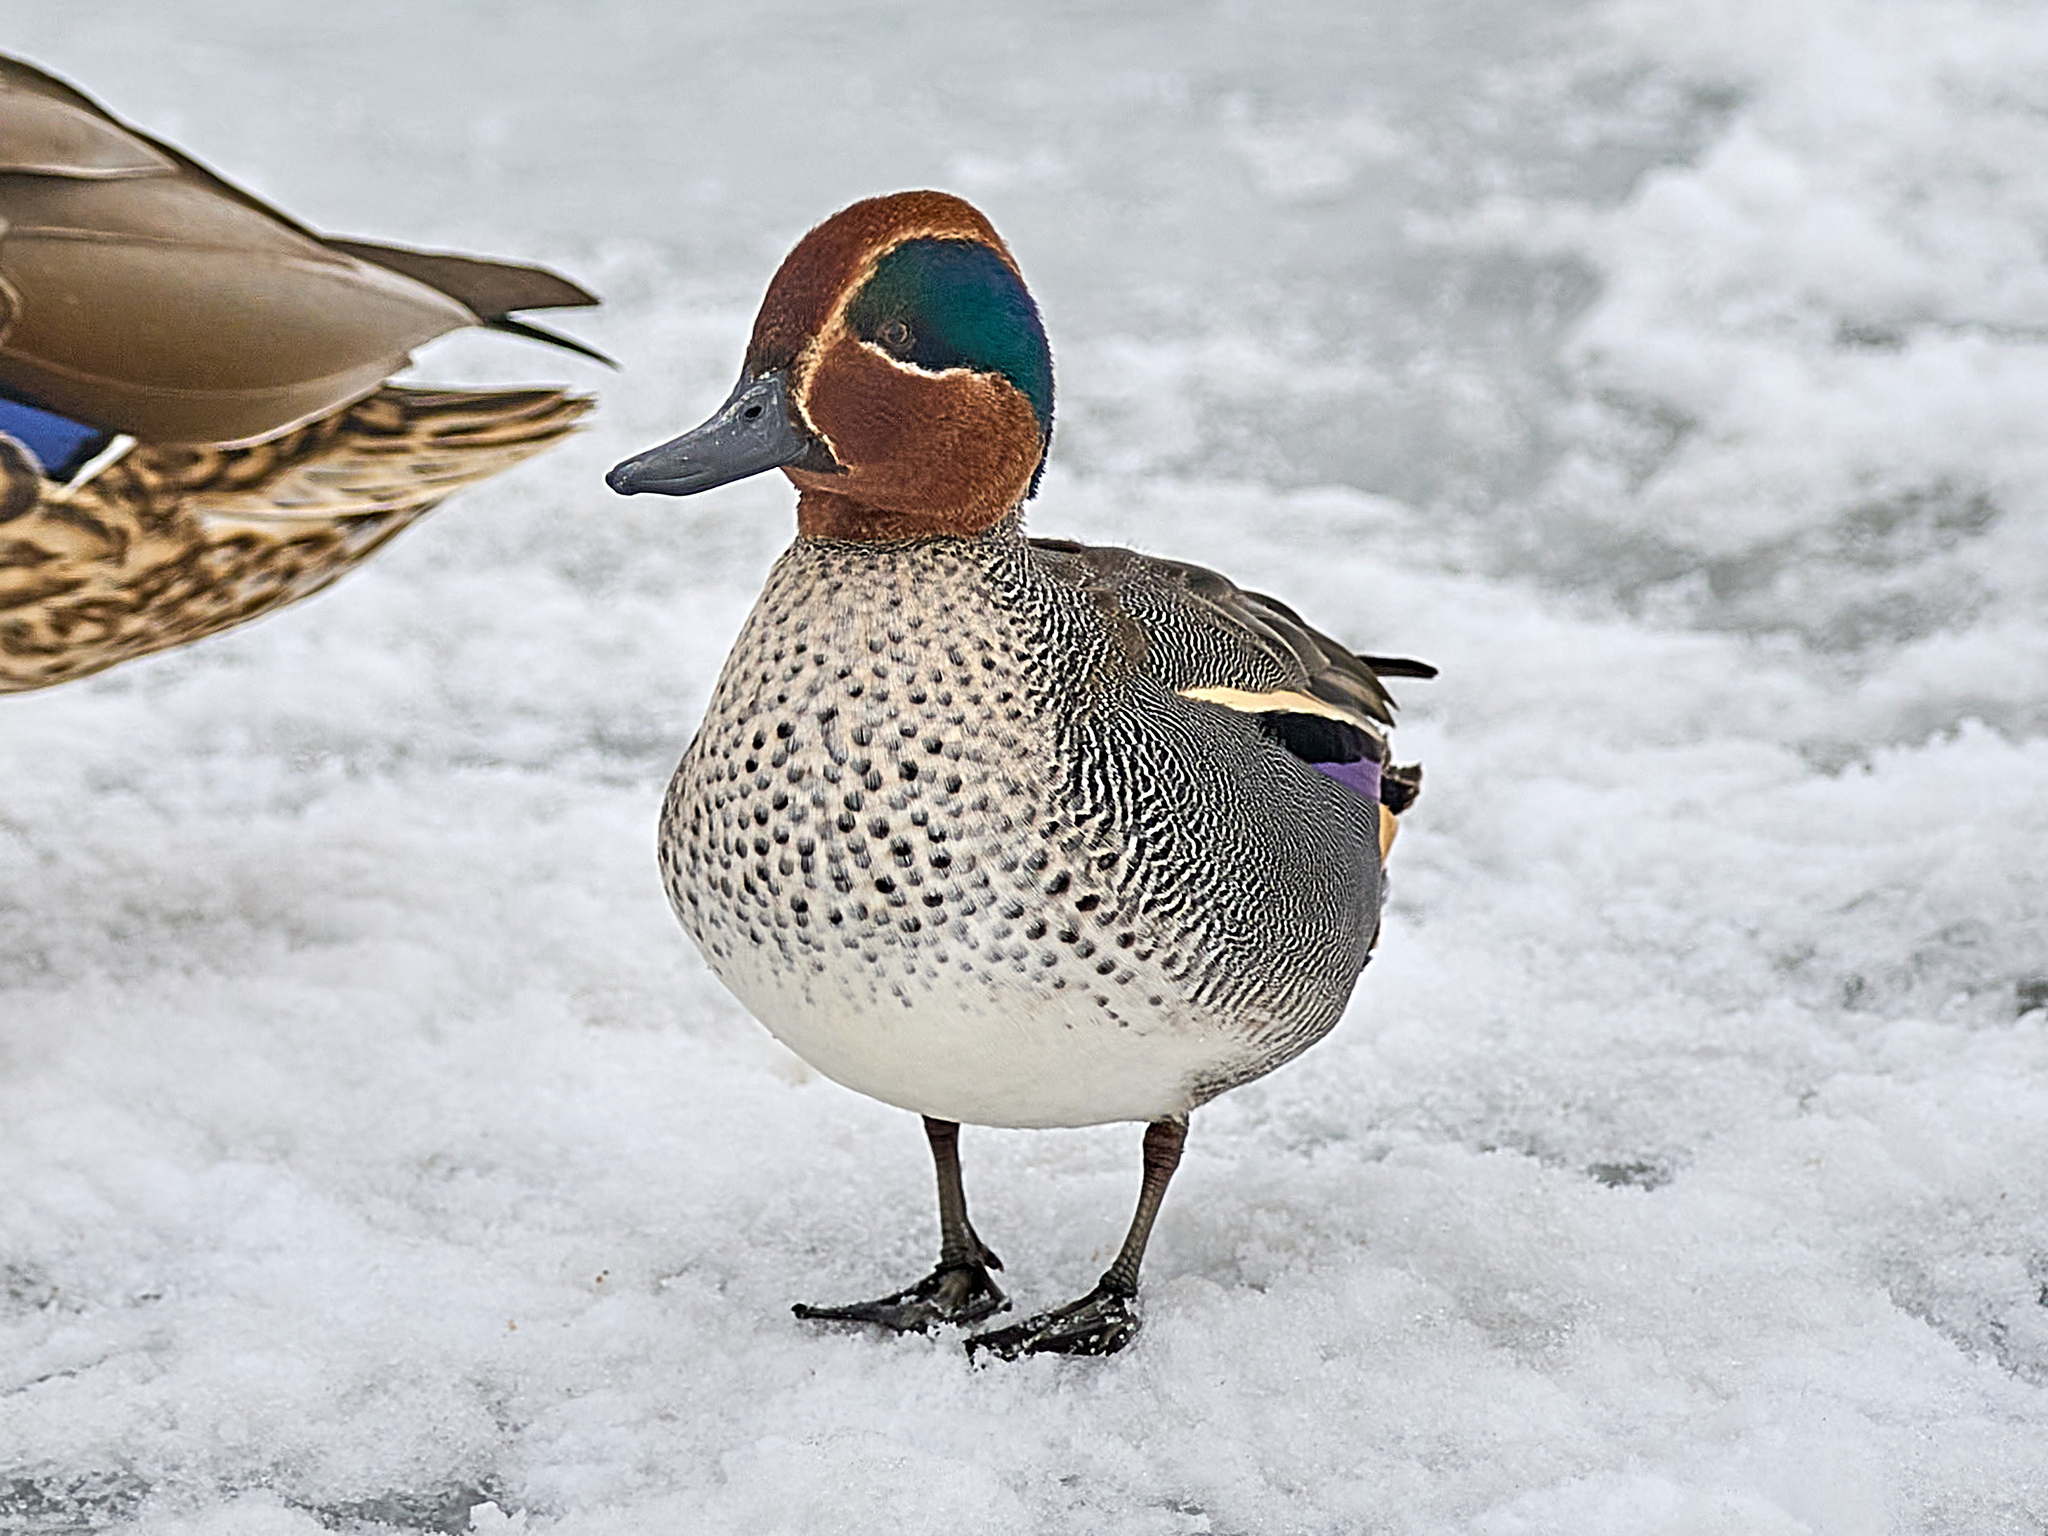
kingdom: Animalia
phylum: Chordata
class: Aves
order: Anseriformes
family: Anatidae
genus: Anas
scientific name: Anas crecca
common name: Eurasian teal
